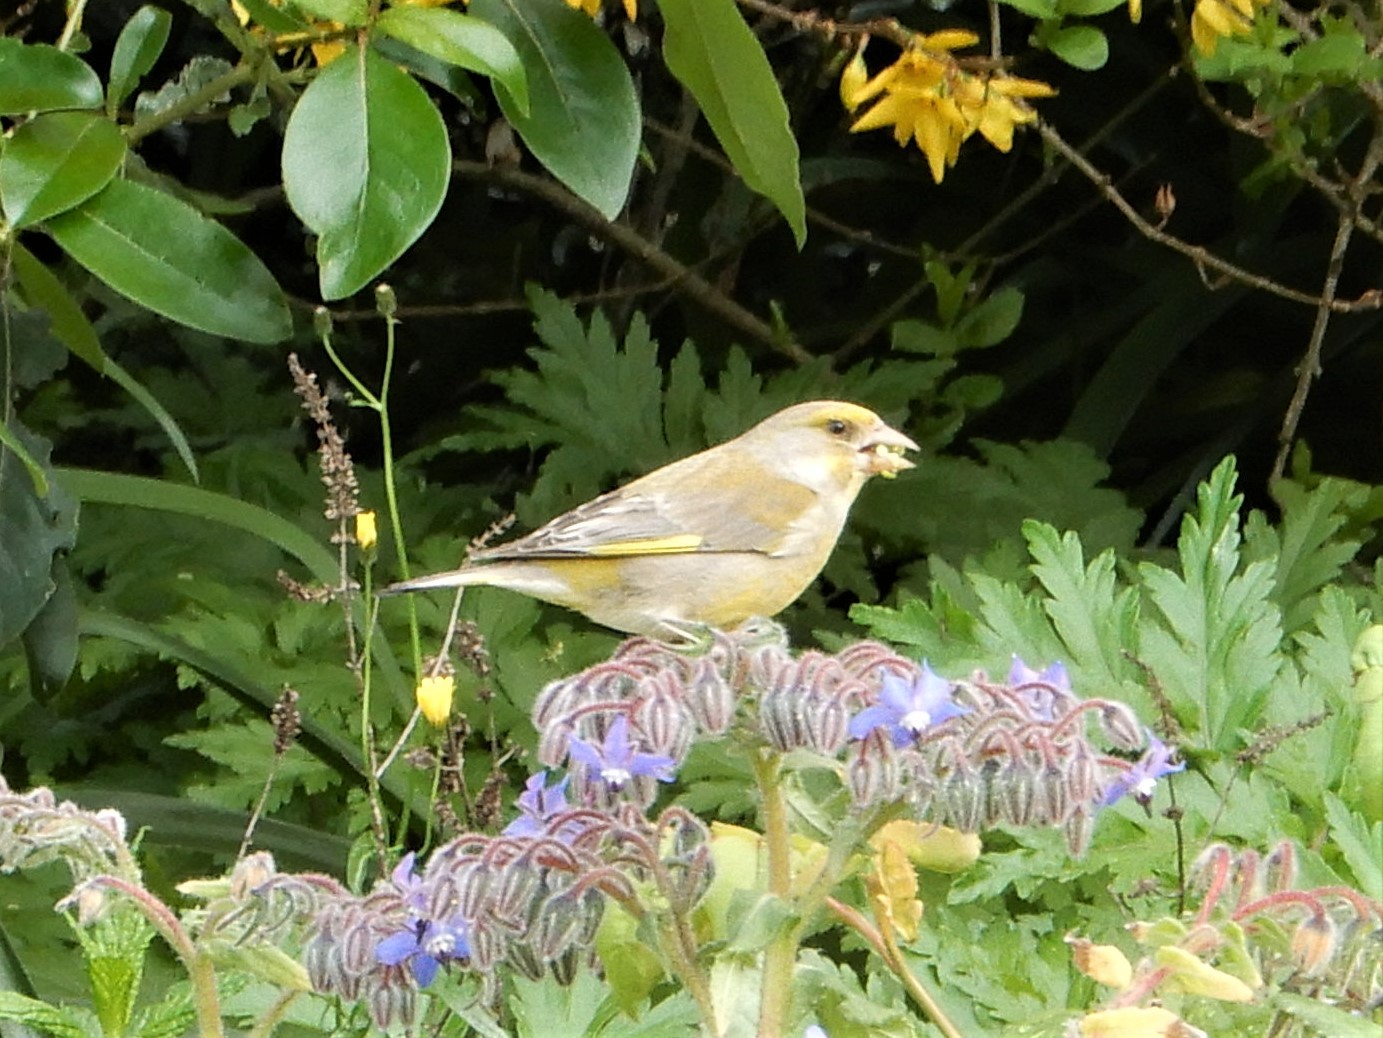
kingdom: Plantae
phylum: Tracheophyta
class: Liliopsida
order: Poales
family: Poaceae
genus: Chloris
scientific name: Chloris chloris
